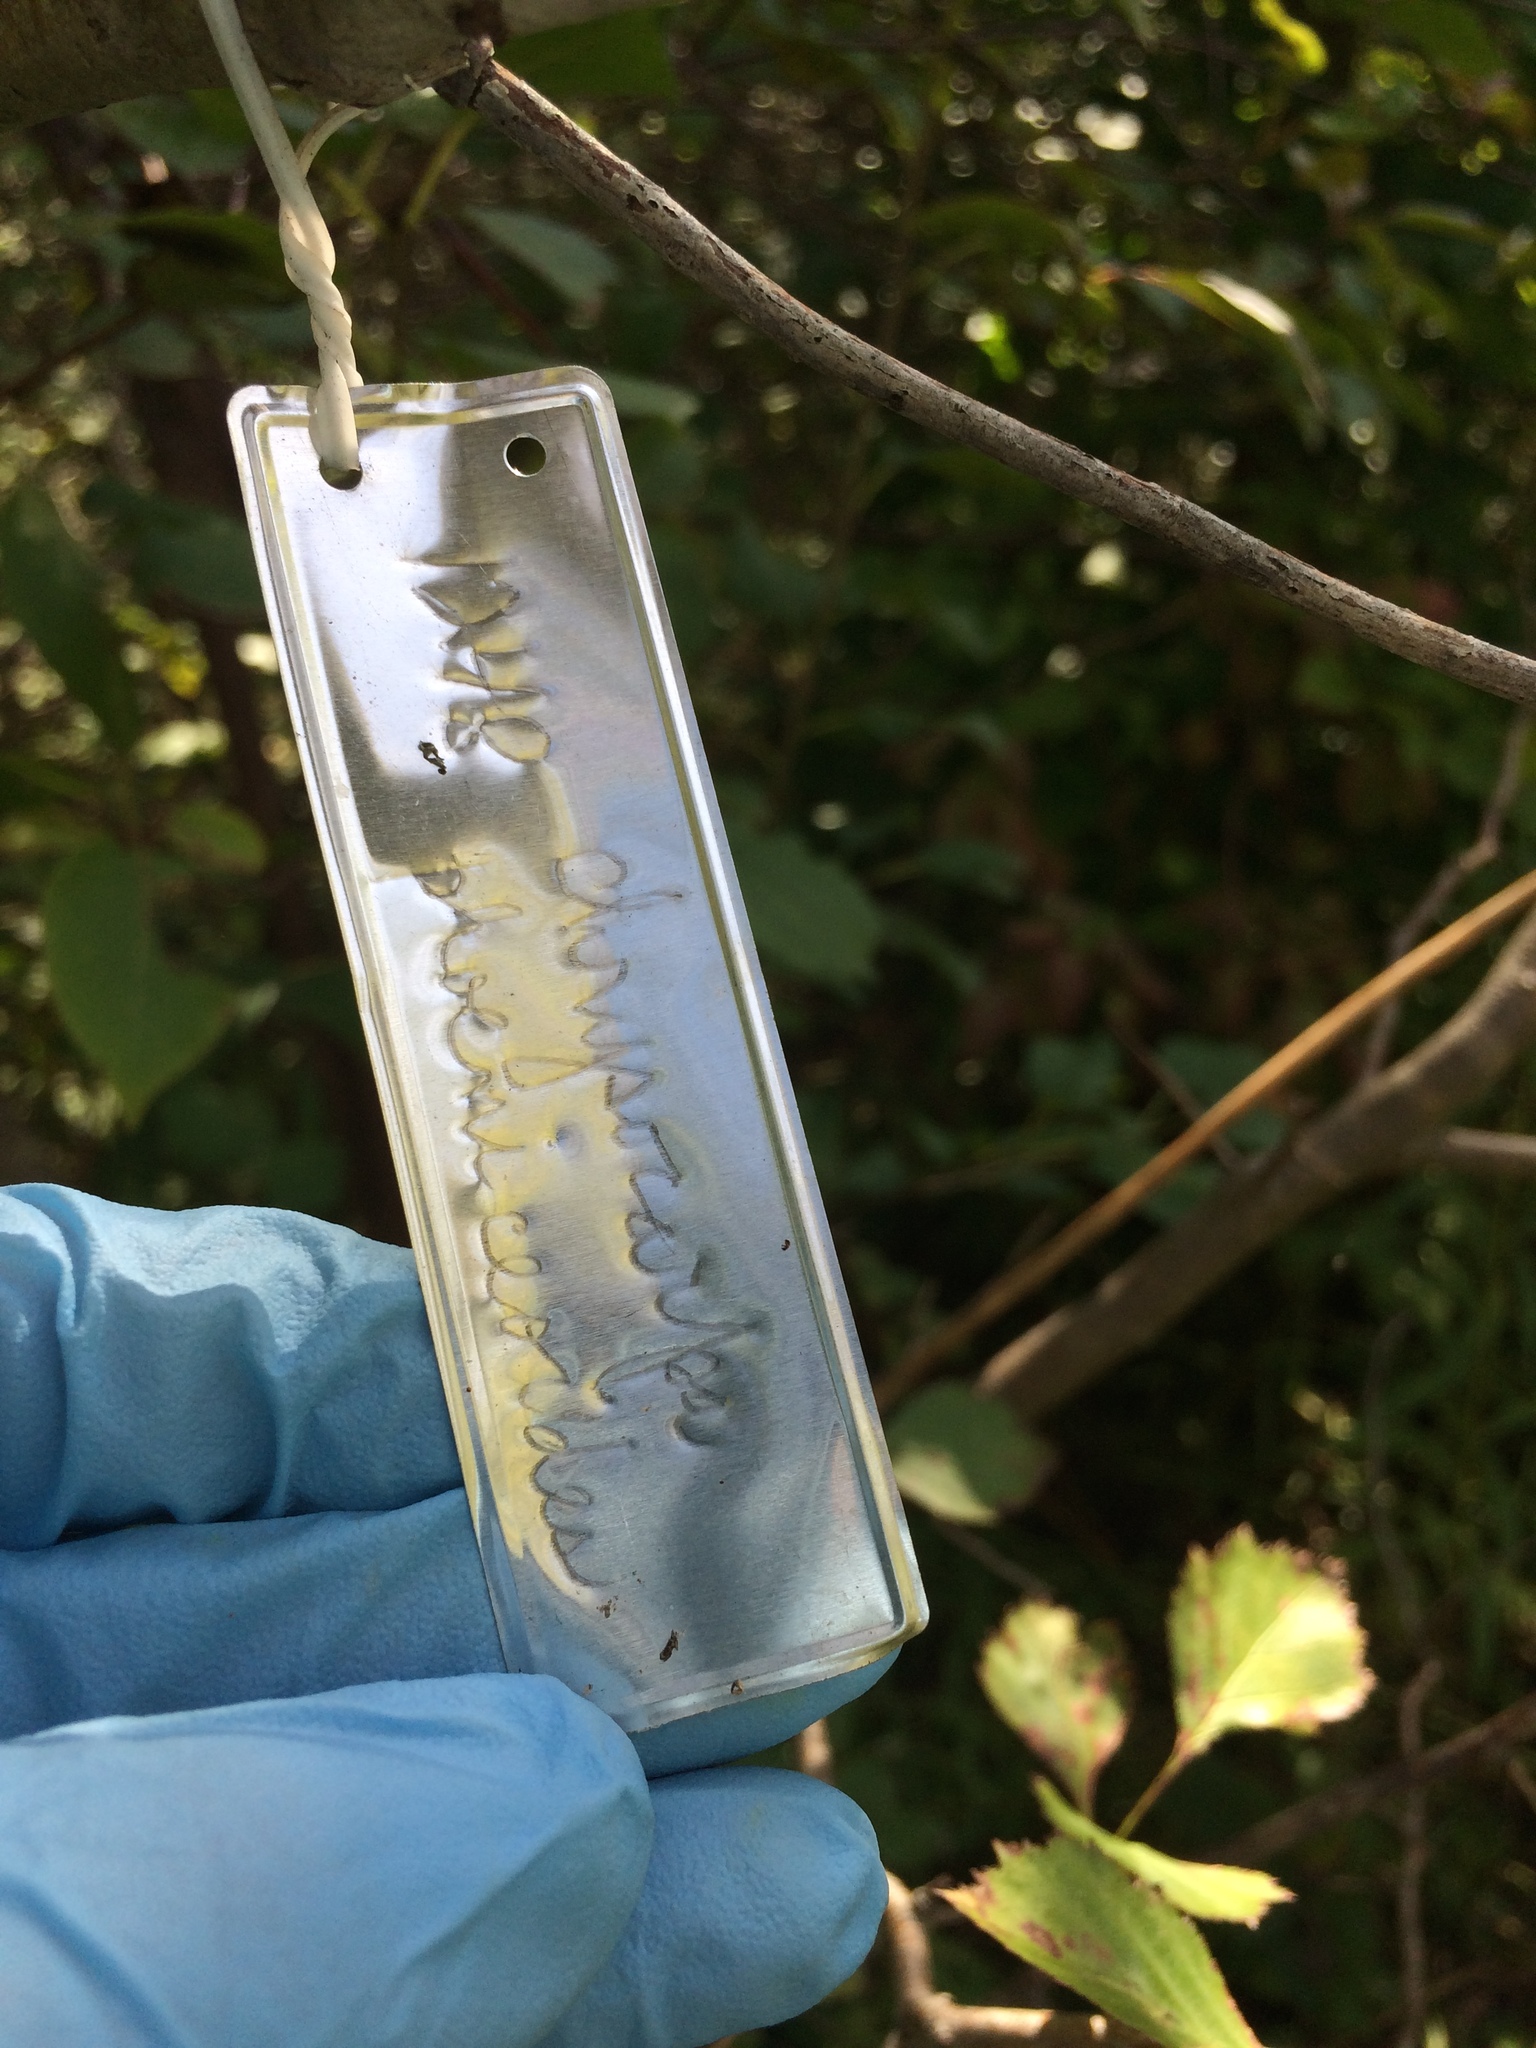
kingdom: Plantae
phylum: Tracheophyta
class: Magnoliopsida
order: Rosales
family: Rosaceae
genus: Crataegus
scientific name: Crataegus chrysocarpa
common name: Fire-berry hawthorn
